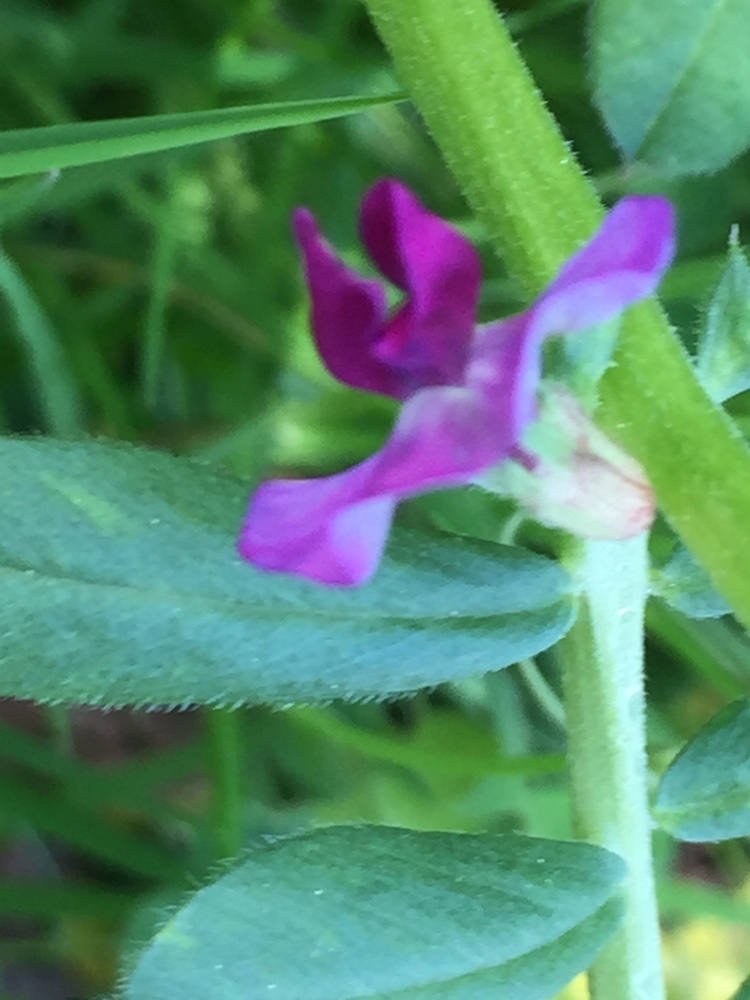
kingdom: Plantae
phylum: Tracheophyta
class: Magnoliopsida
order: Fabales
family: Fabaceae
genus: Vicia
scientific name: Vicia sativa
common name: Garden vetch
